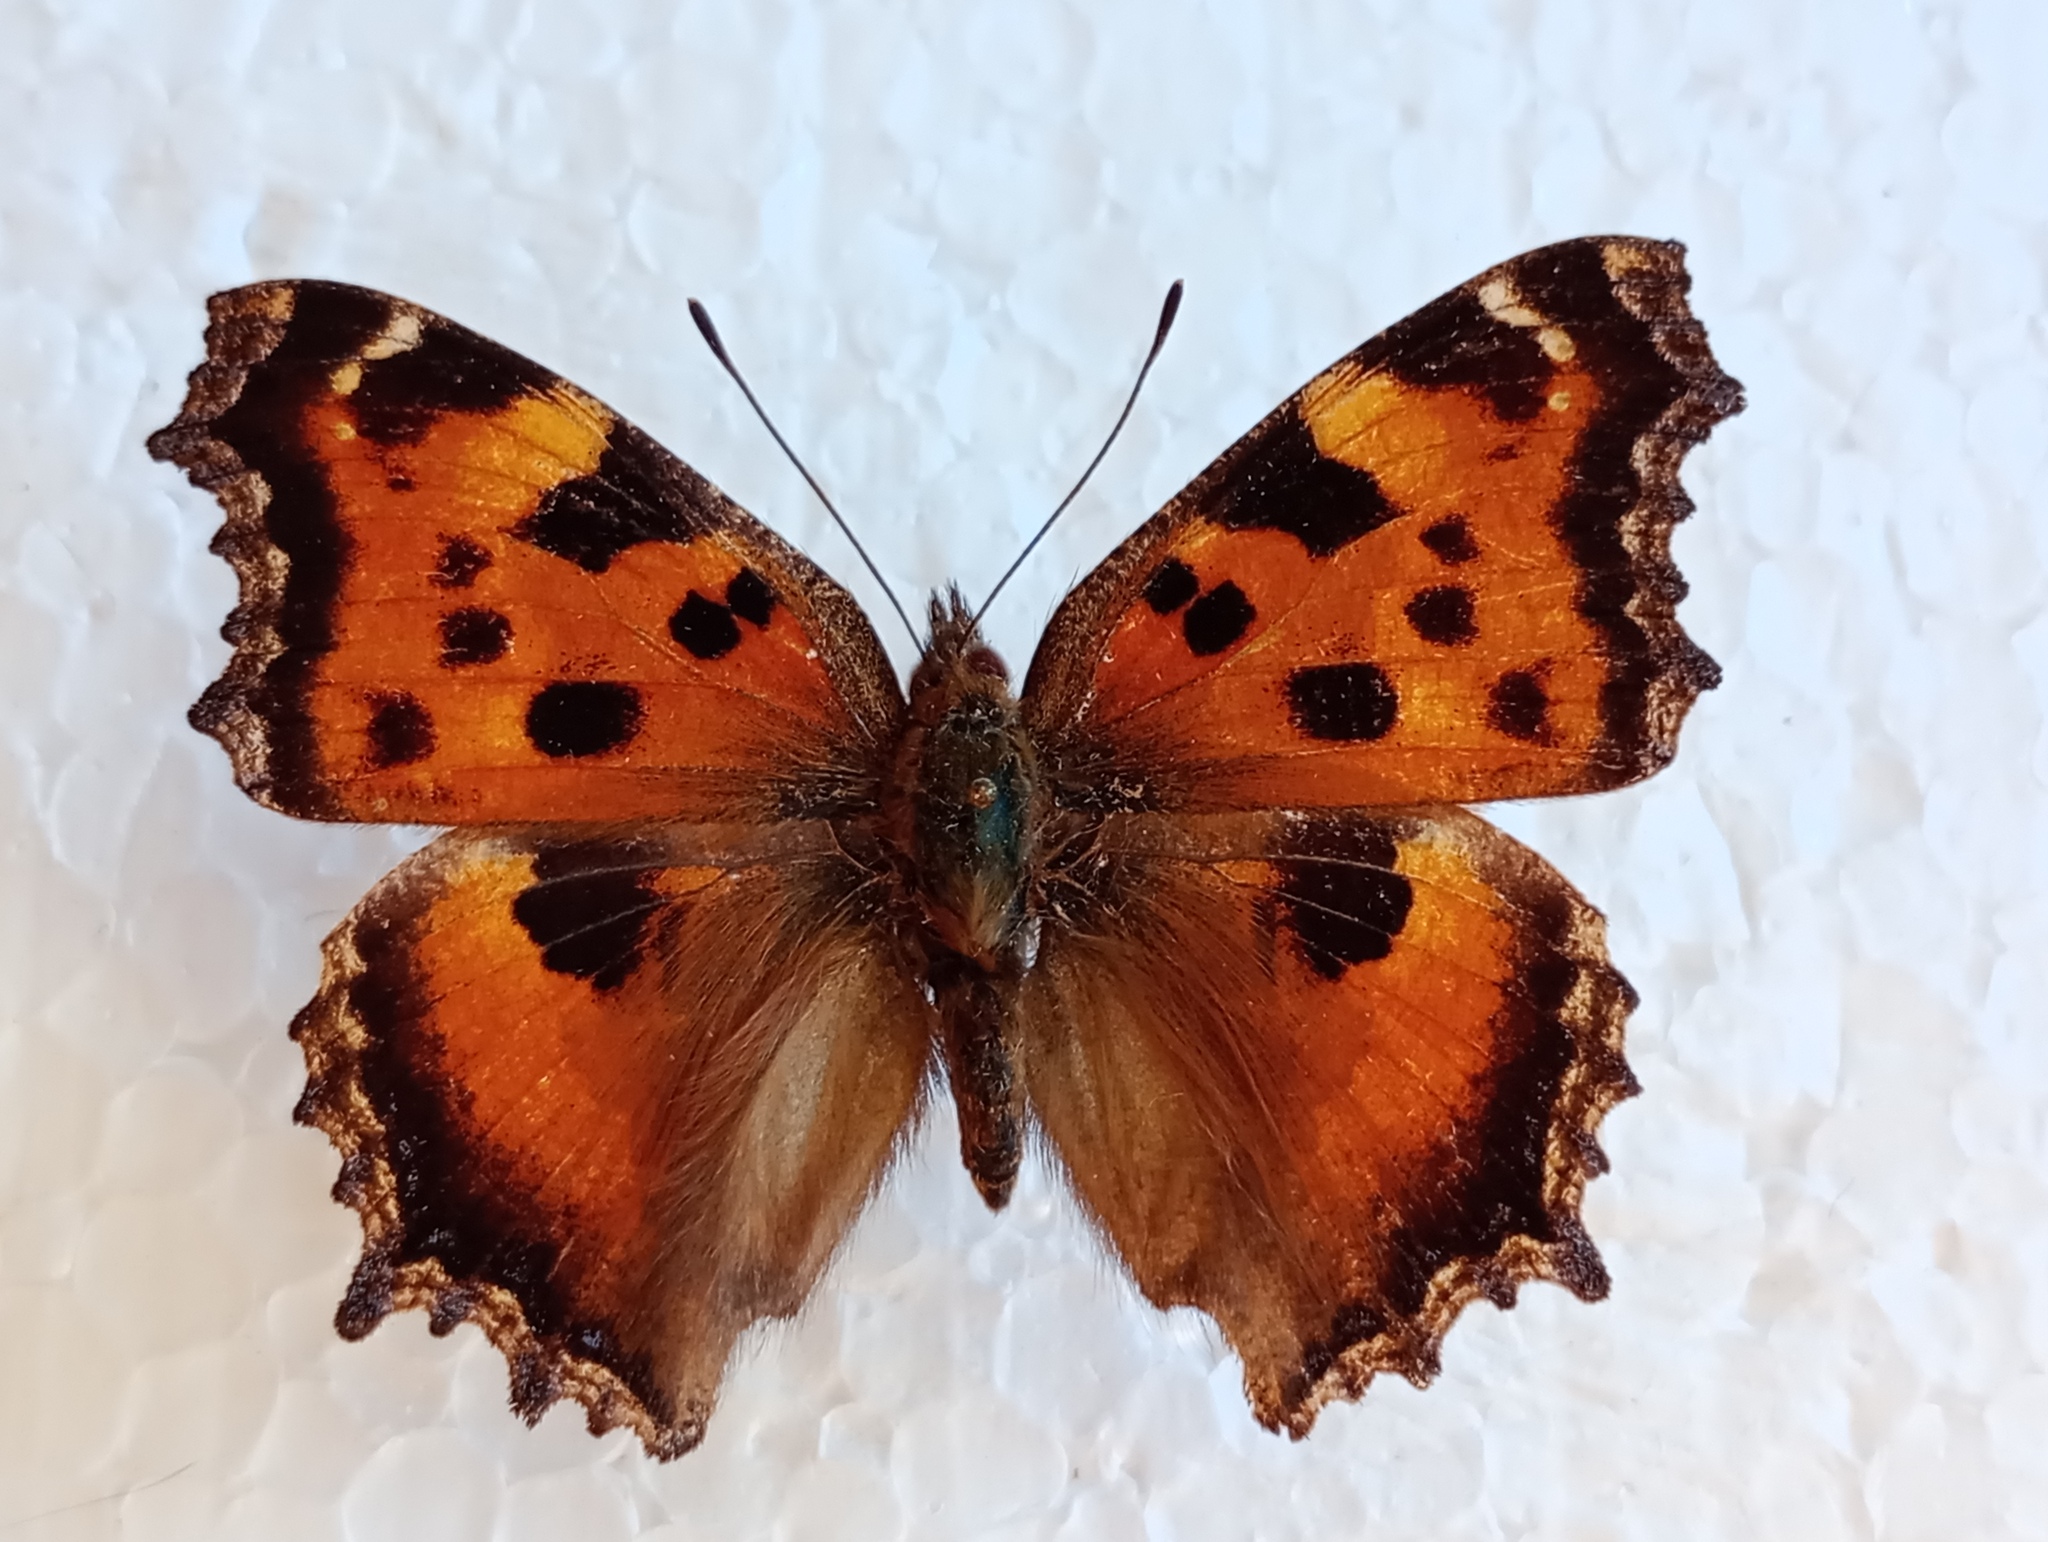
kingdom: Animalia
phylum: Arthropoda
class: Insecta
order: Lepidoptera
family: Nymphalidae
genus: Nymphalis
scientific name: Nymphalis xanthomelas
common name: Scarce tortoiseshell
